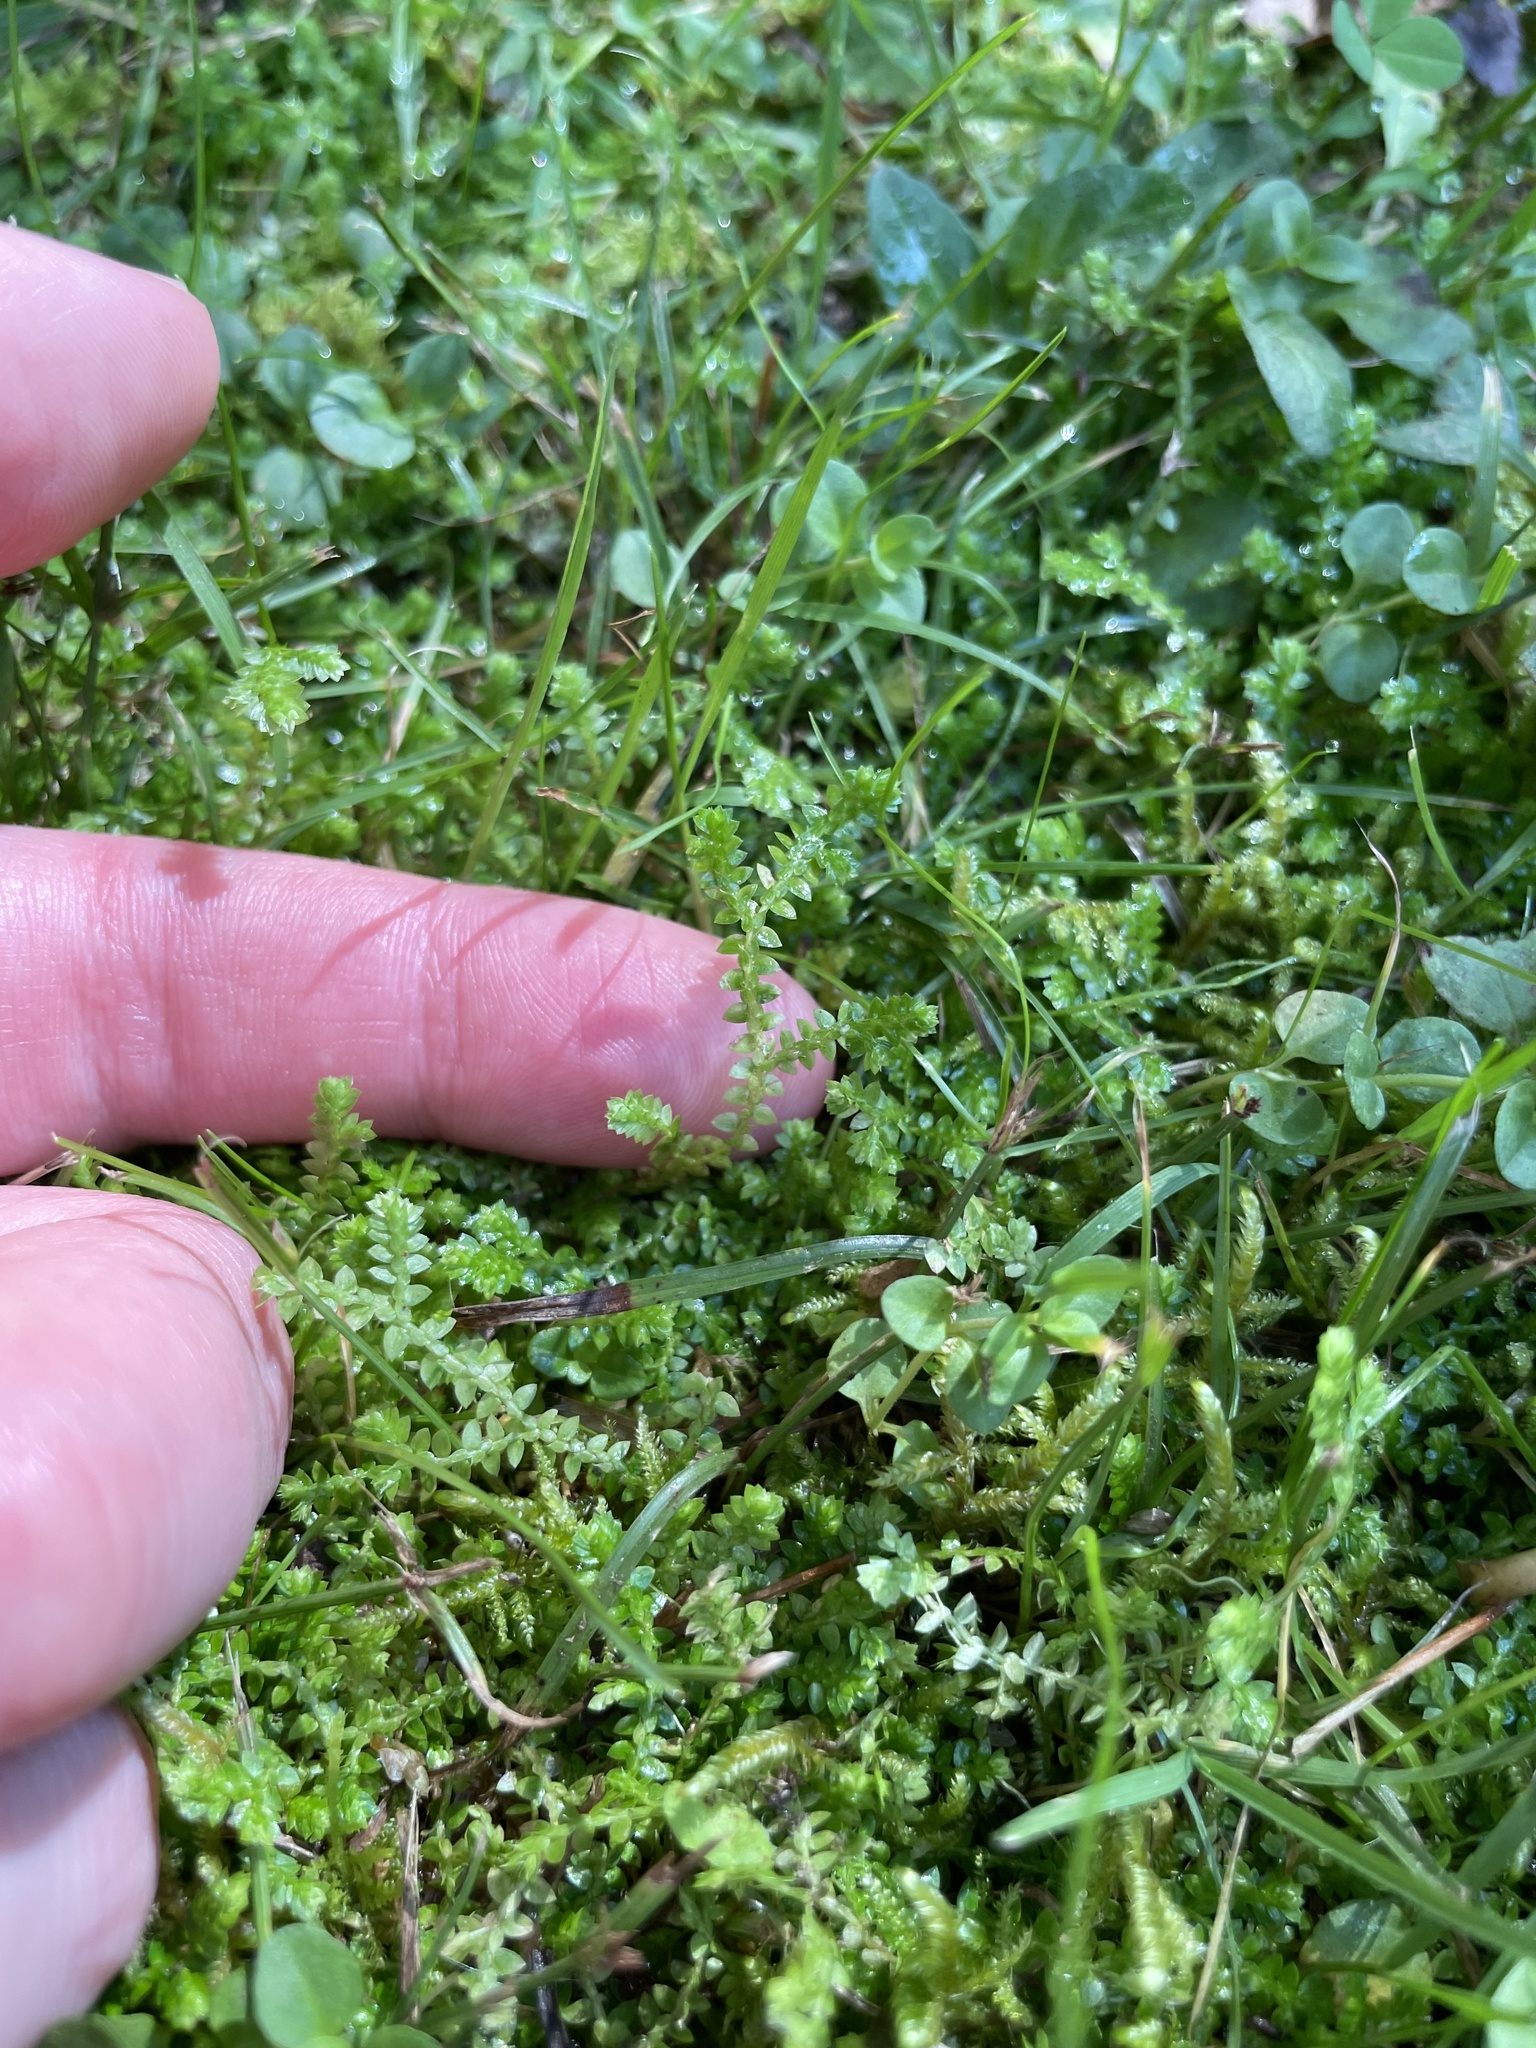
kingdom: Plantae
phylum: Tracheophyta
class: Lycopodiopsida
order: Selaginellales
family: Selaginellaceae
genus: Selaginella
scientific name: Selaginella apoda
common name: Creeping spikemoss
